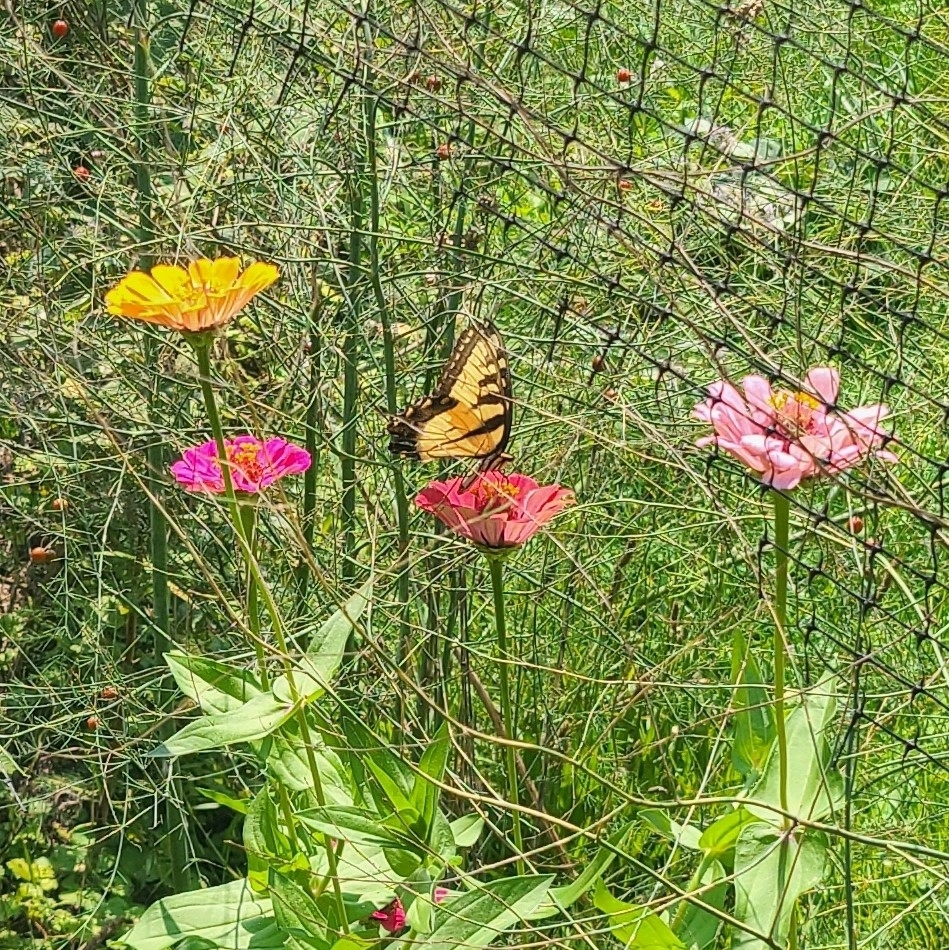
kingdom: Animalia
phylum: Arthropoda
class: Insecta
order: Lepidoptera
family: Papilionidae
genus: Papilio
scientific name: Papilio glaucus
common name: Tiger swallowtail
